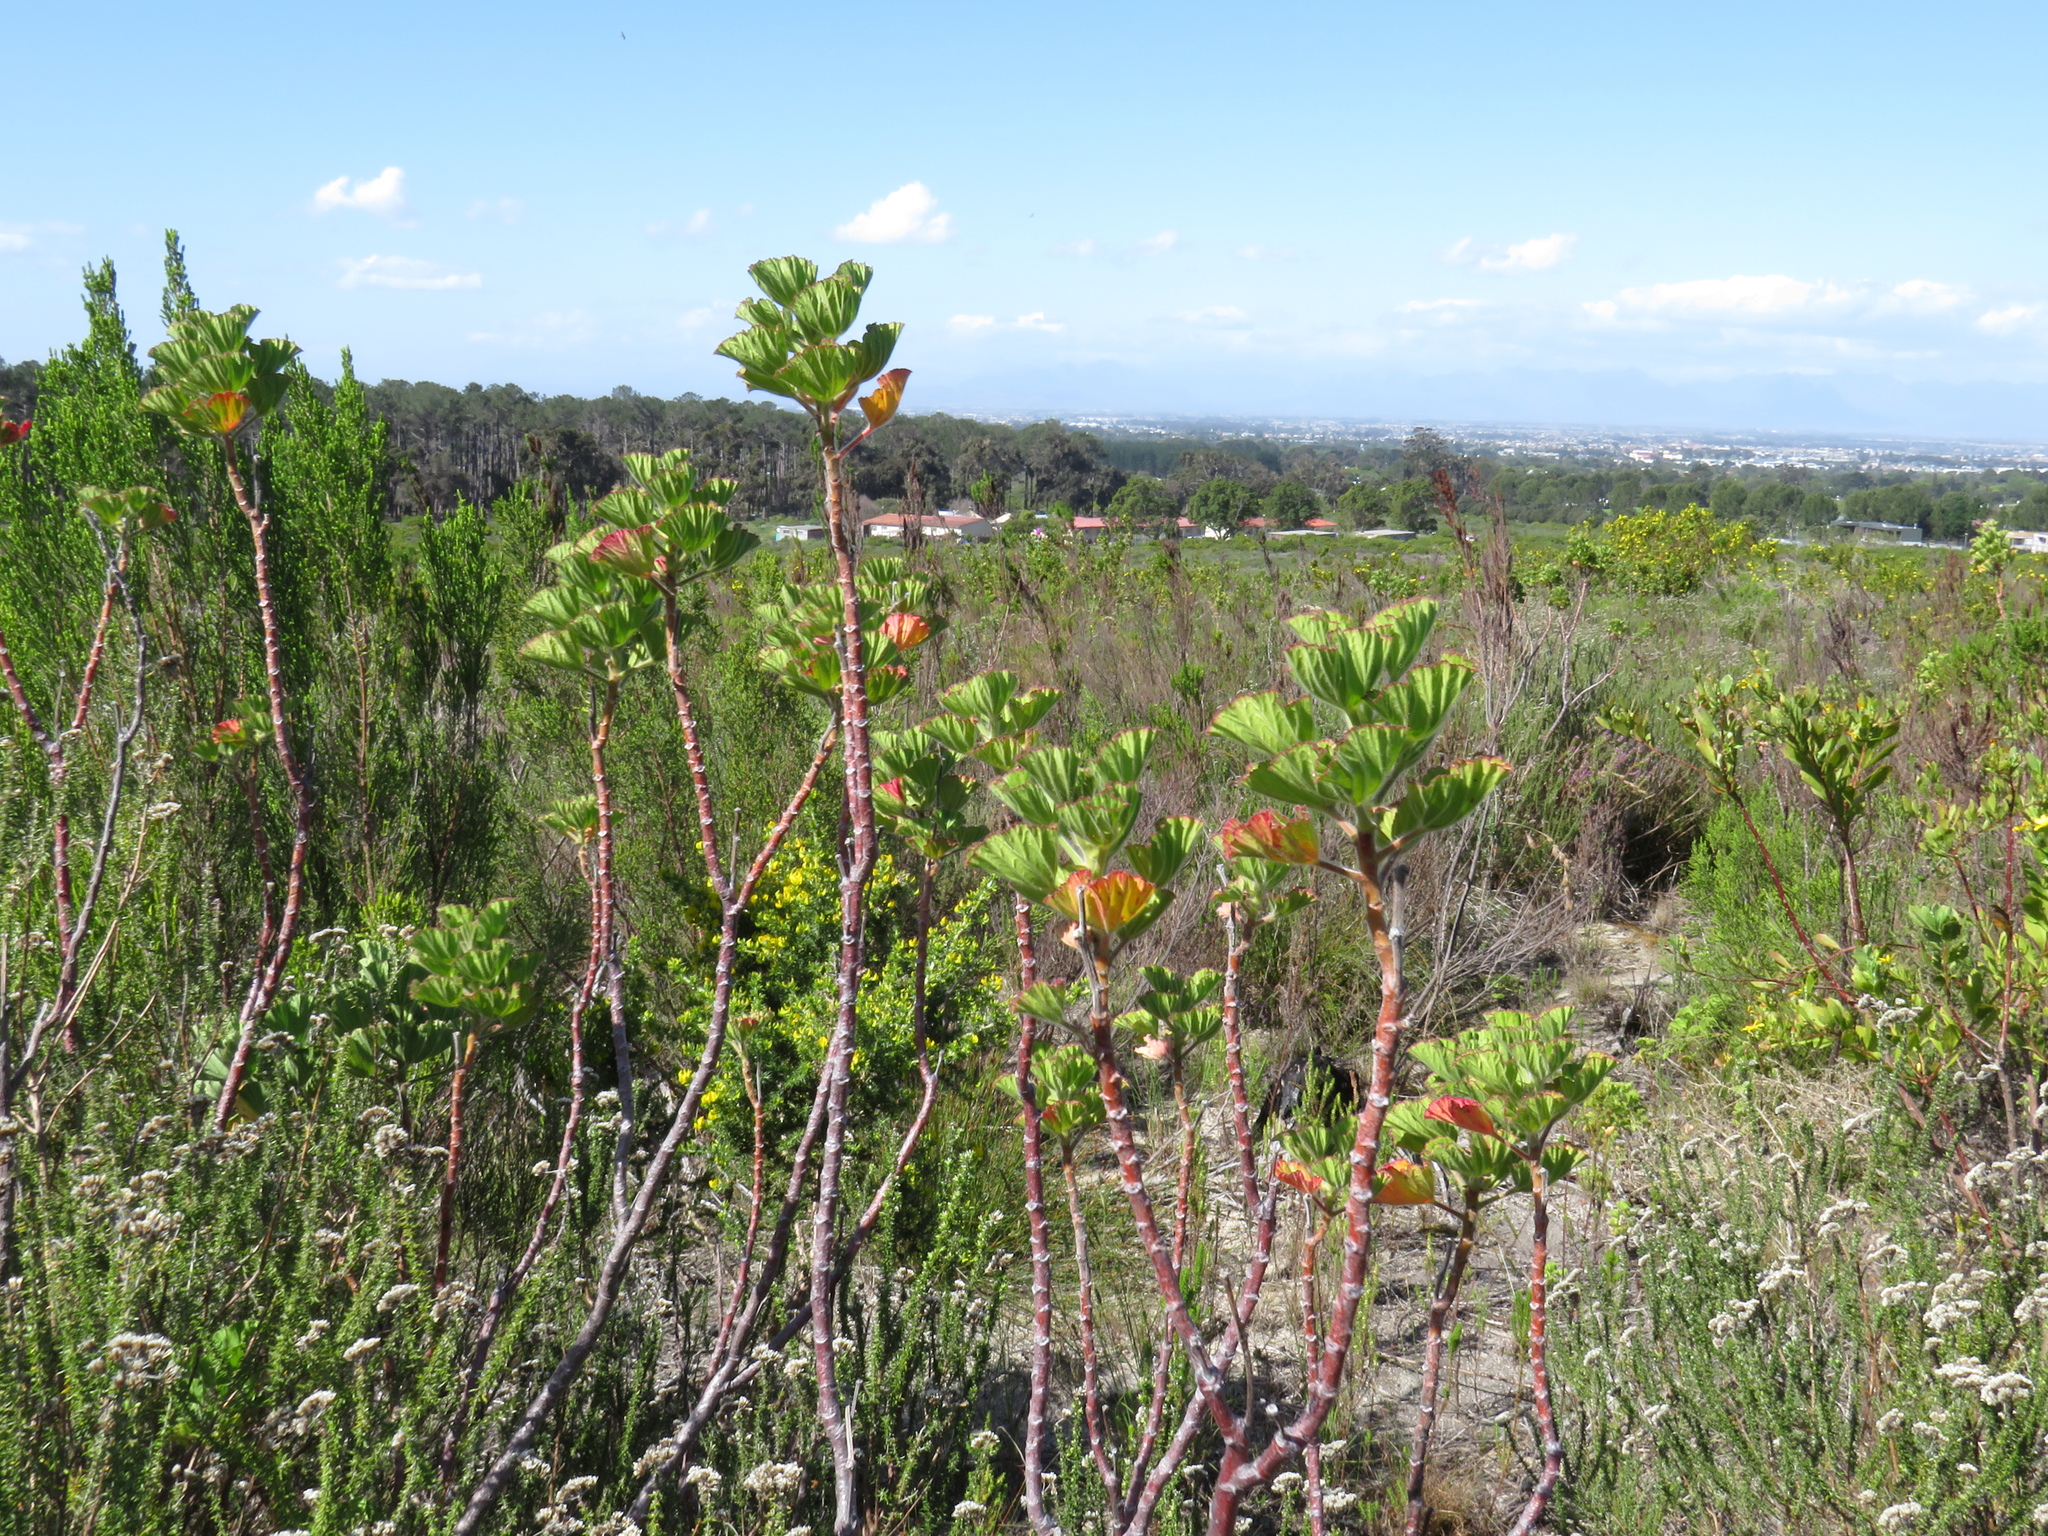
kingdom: Plantae
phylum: Tracheophyta
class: Magnoliopsida
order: Geraniales
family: Geraniaceae
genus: Pelargonium
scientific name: Pelargonium cucullatum
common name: Tree pelargonium
